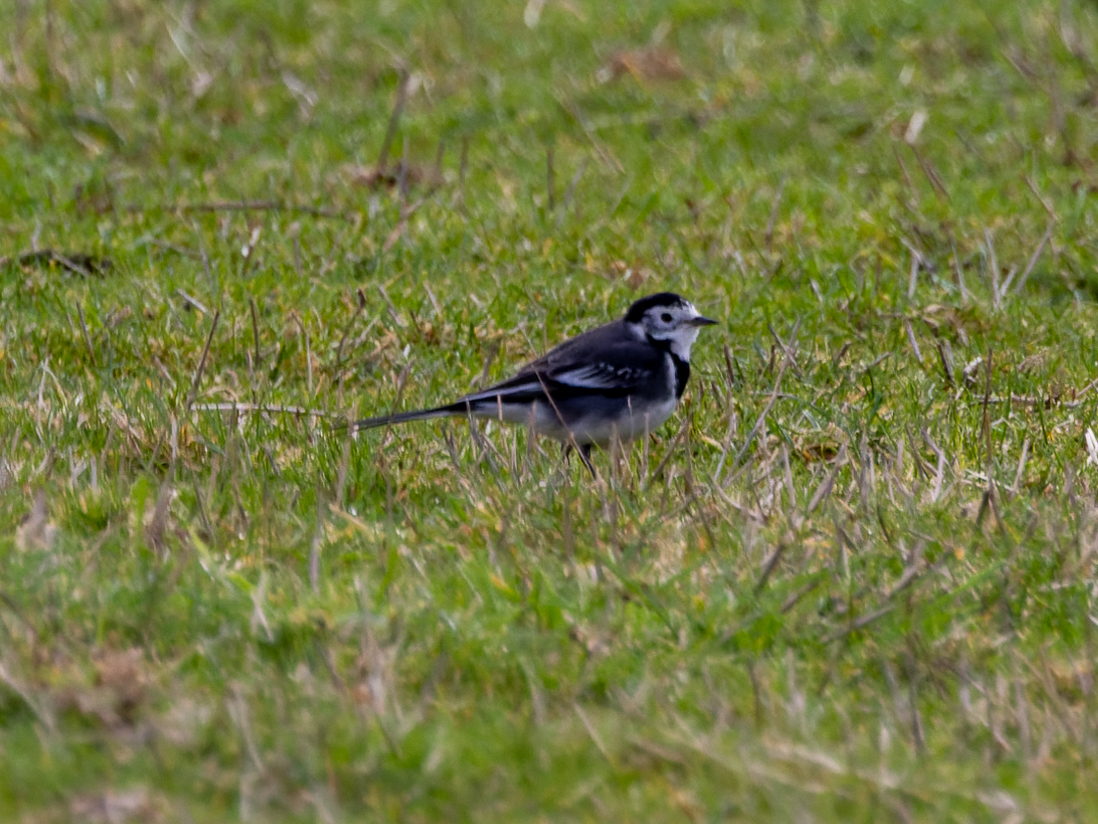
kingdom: Animalia
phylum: Chordata
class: Aves
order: Passeriformes
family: Motacillidae
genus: Motacilla
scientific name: Motacilla alba
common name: White wagtail
